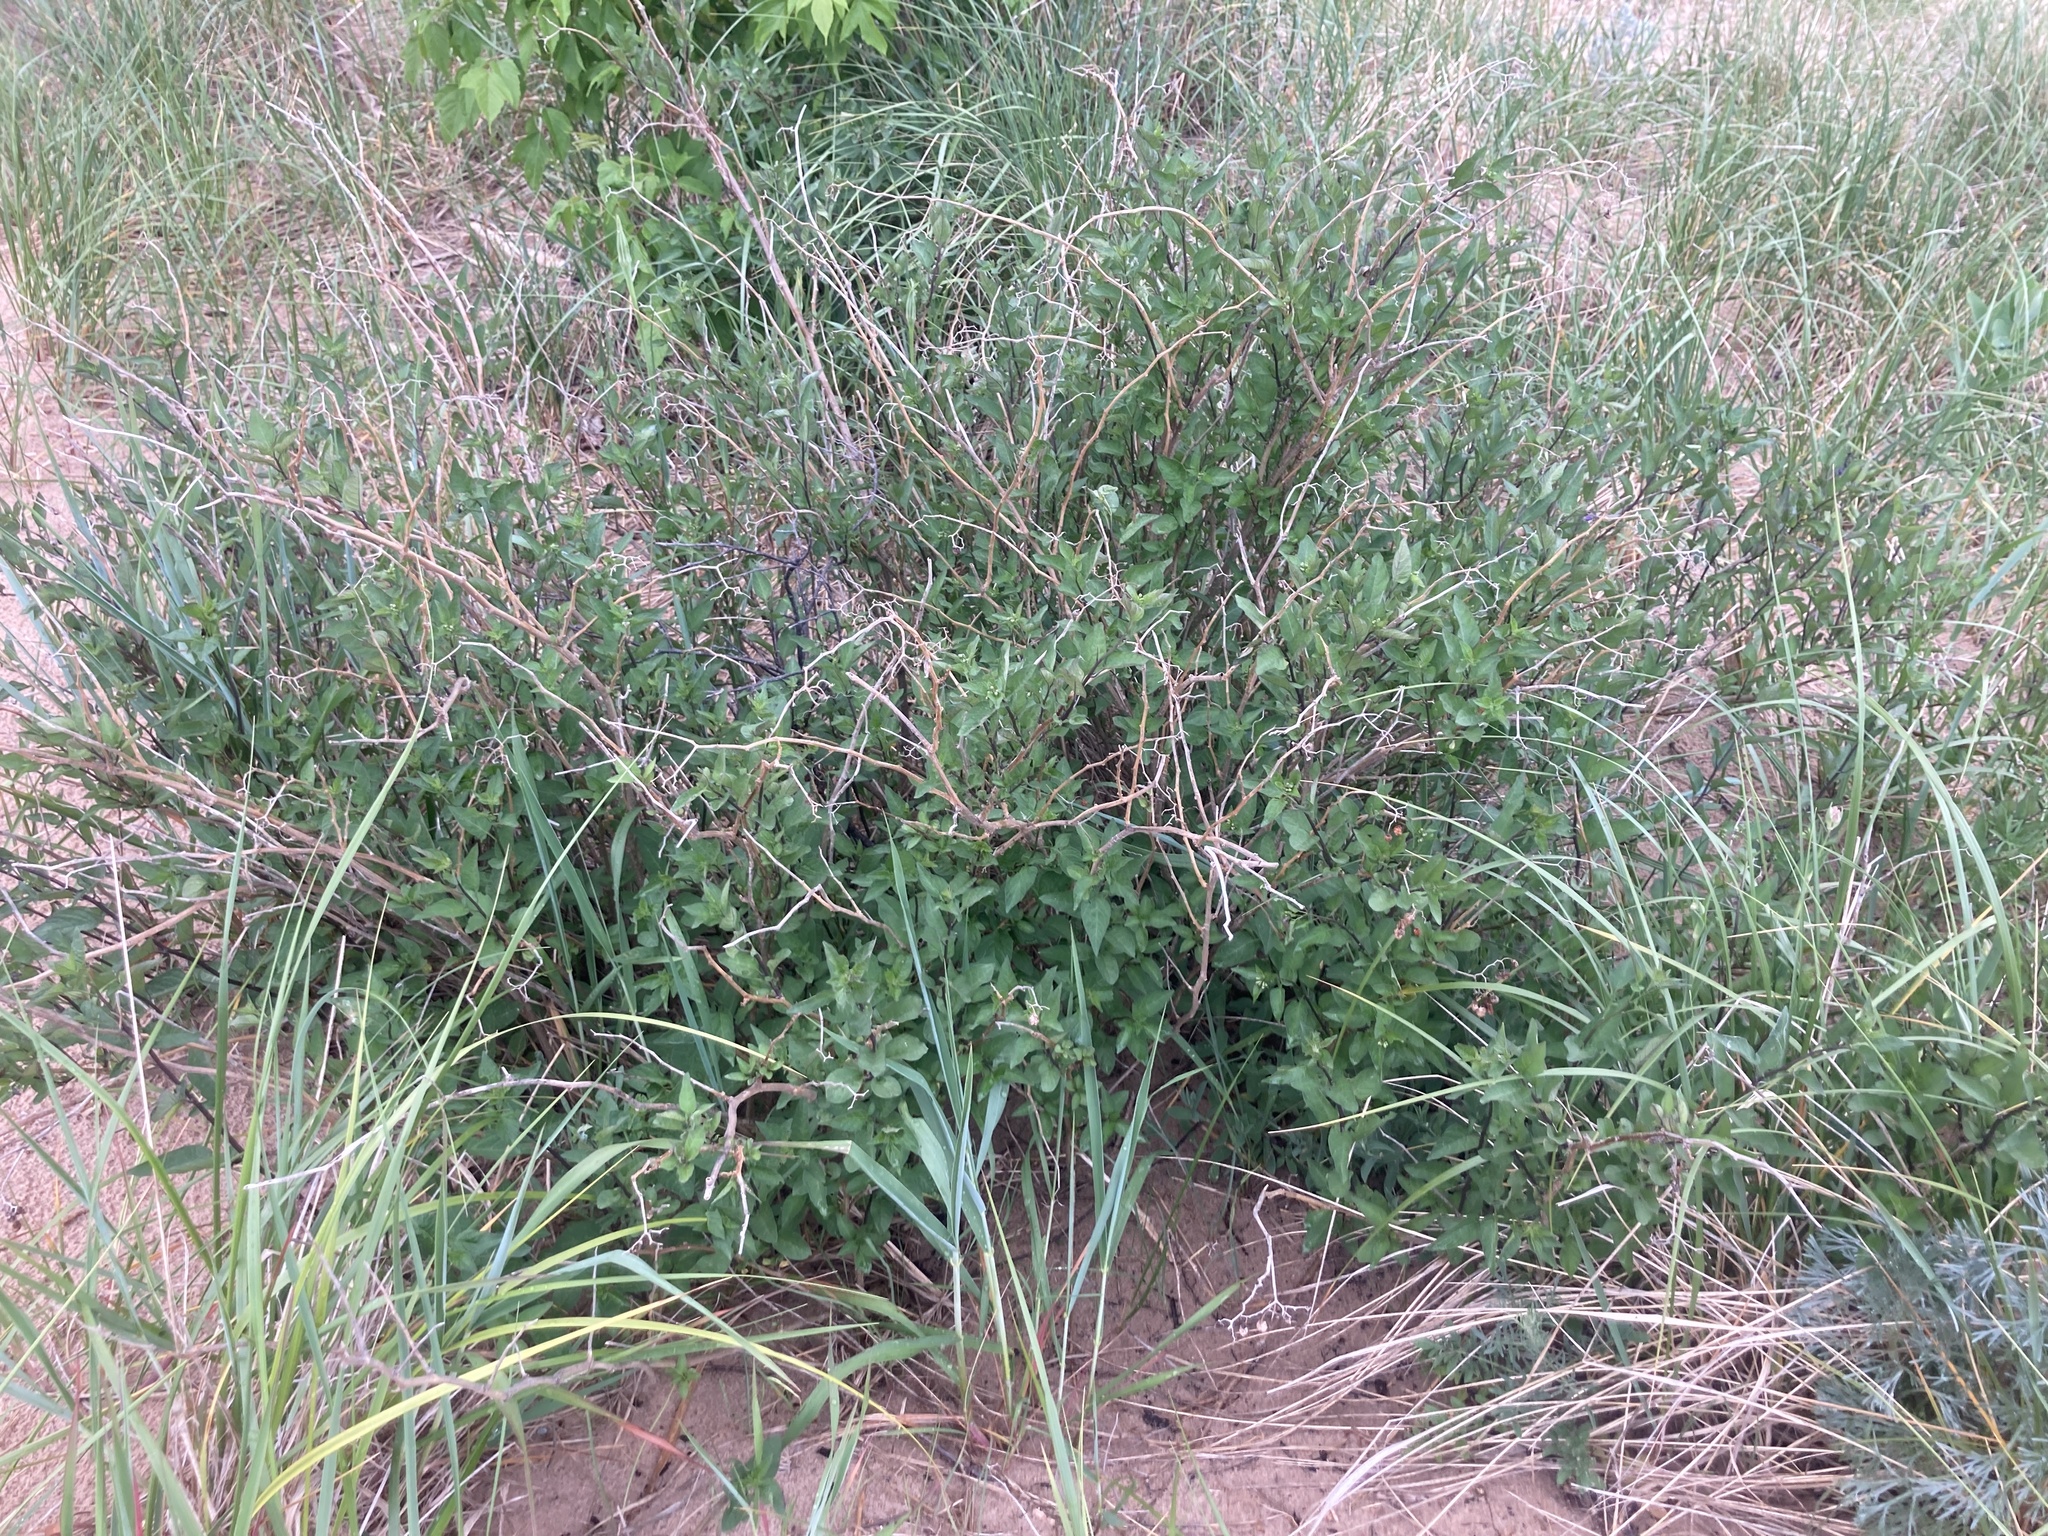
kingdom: Plantae
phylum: Tracheophyta
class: Magnoliopsida
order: Solanales
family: Solanaceae
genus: Solanum
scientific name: Solanum dulcamara
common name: Climbing nightshade
